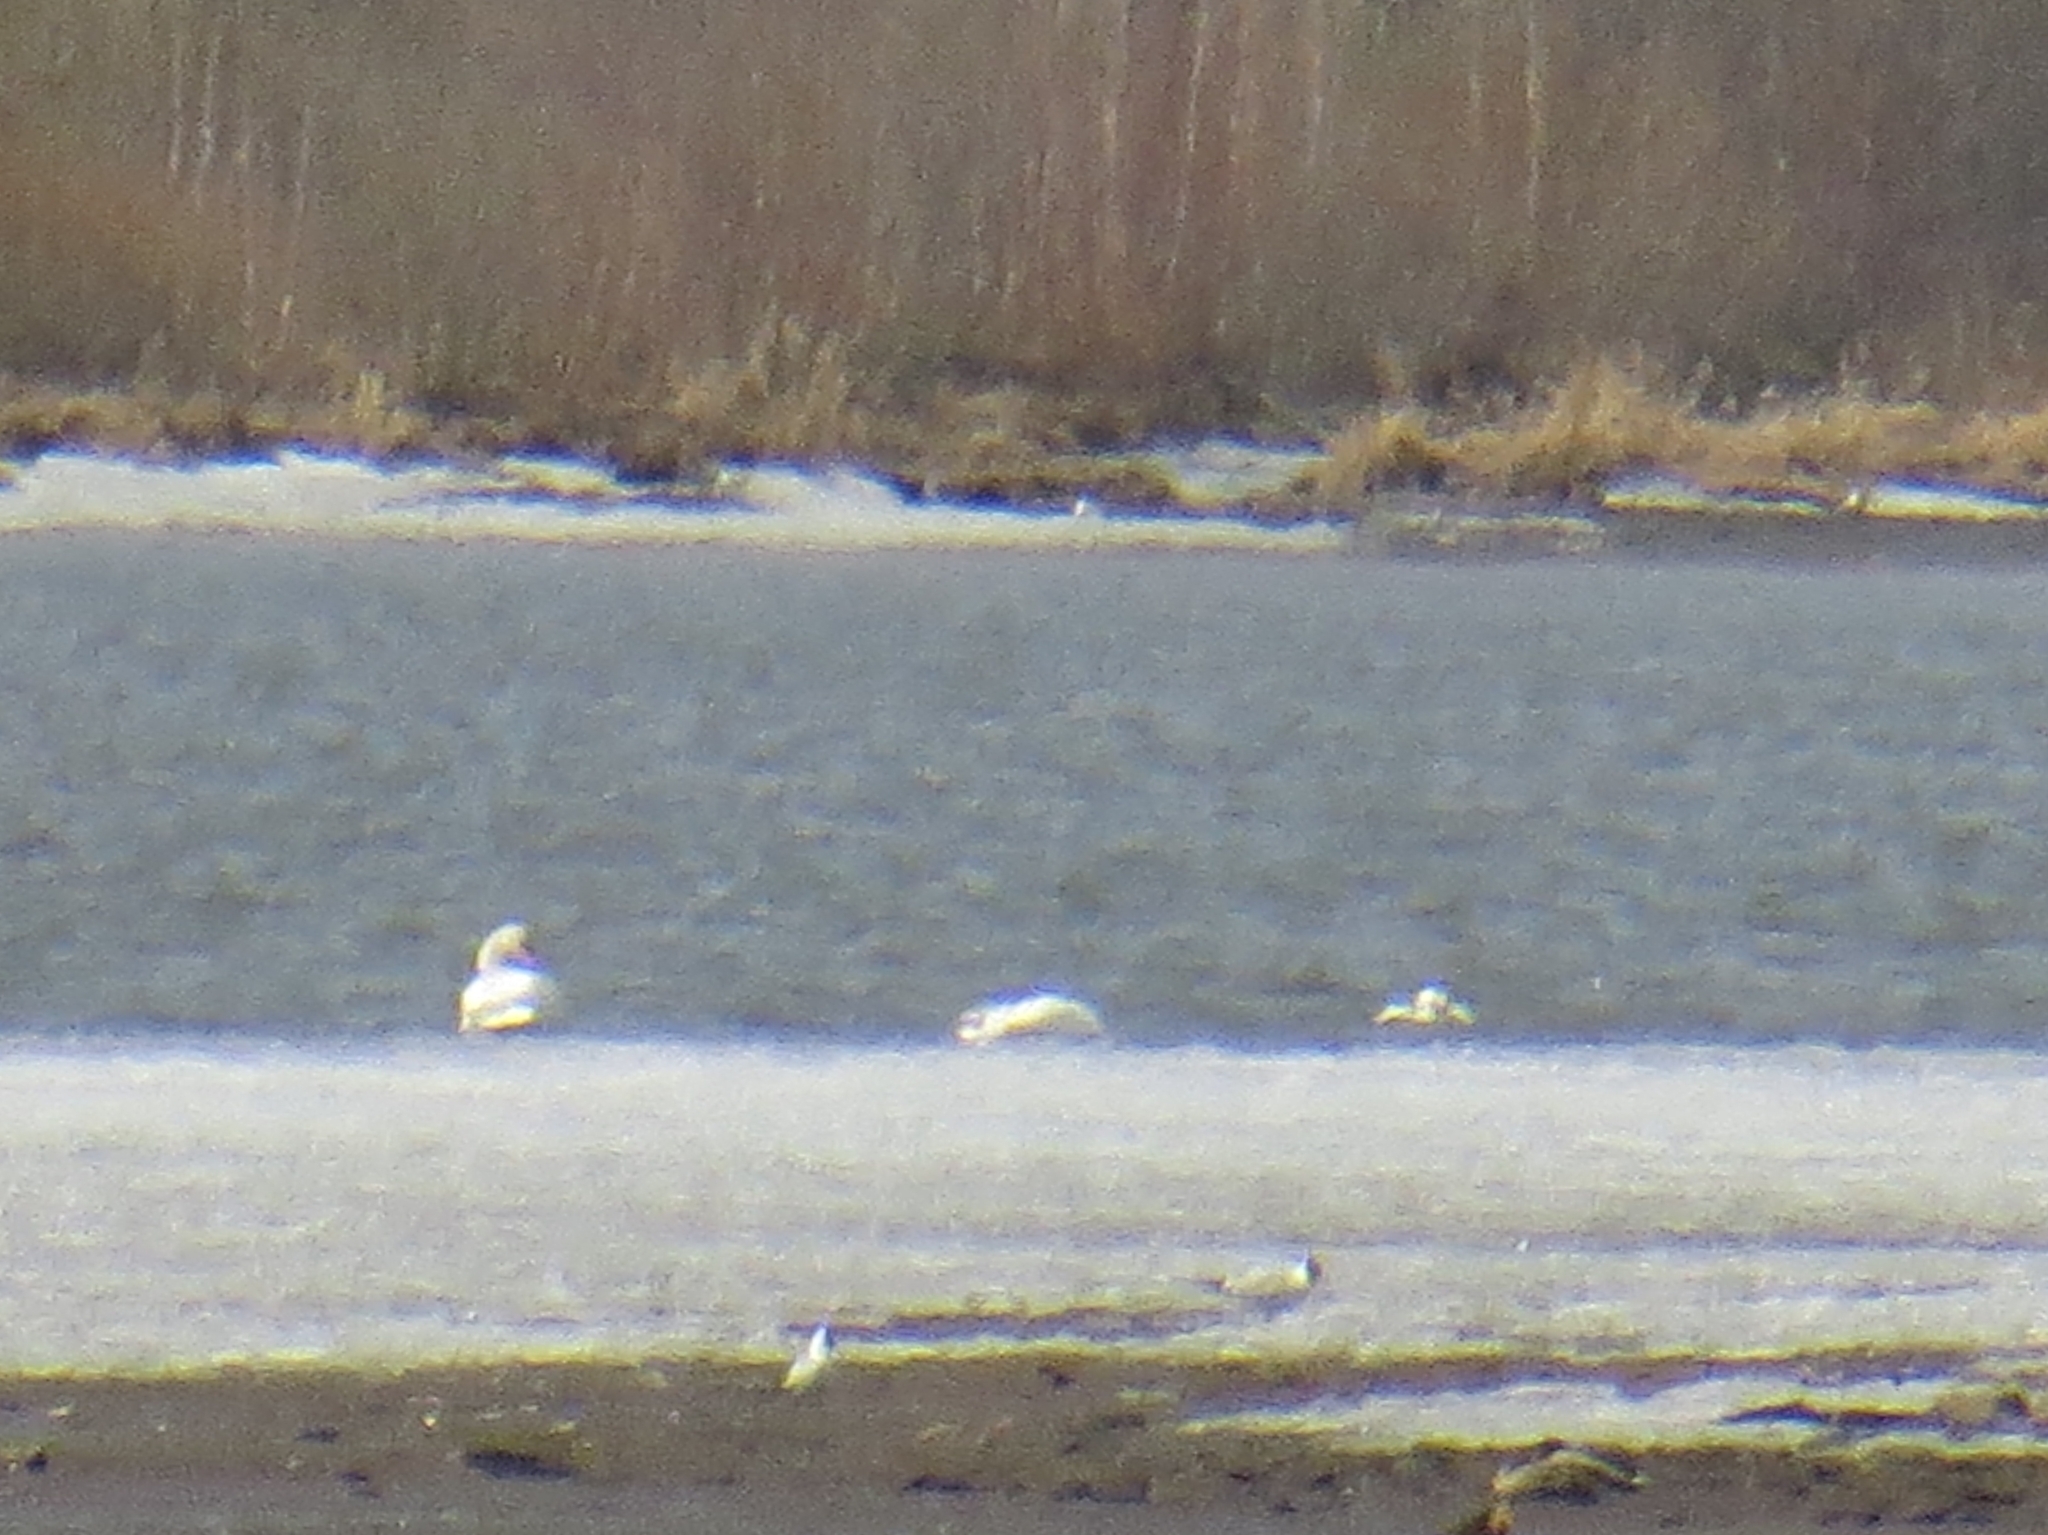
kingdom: Animalia
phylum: Chordata
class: Aves
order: Anseriformes
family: Anatidae
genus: Cygnus
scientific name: Cygnus olor
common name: Mute swan
